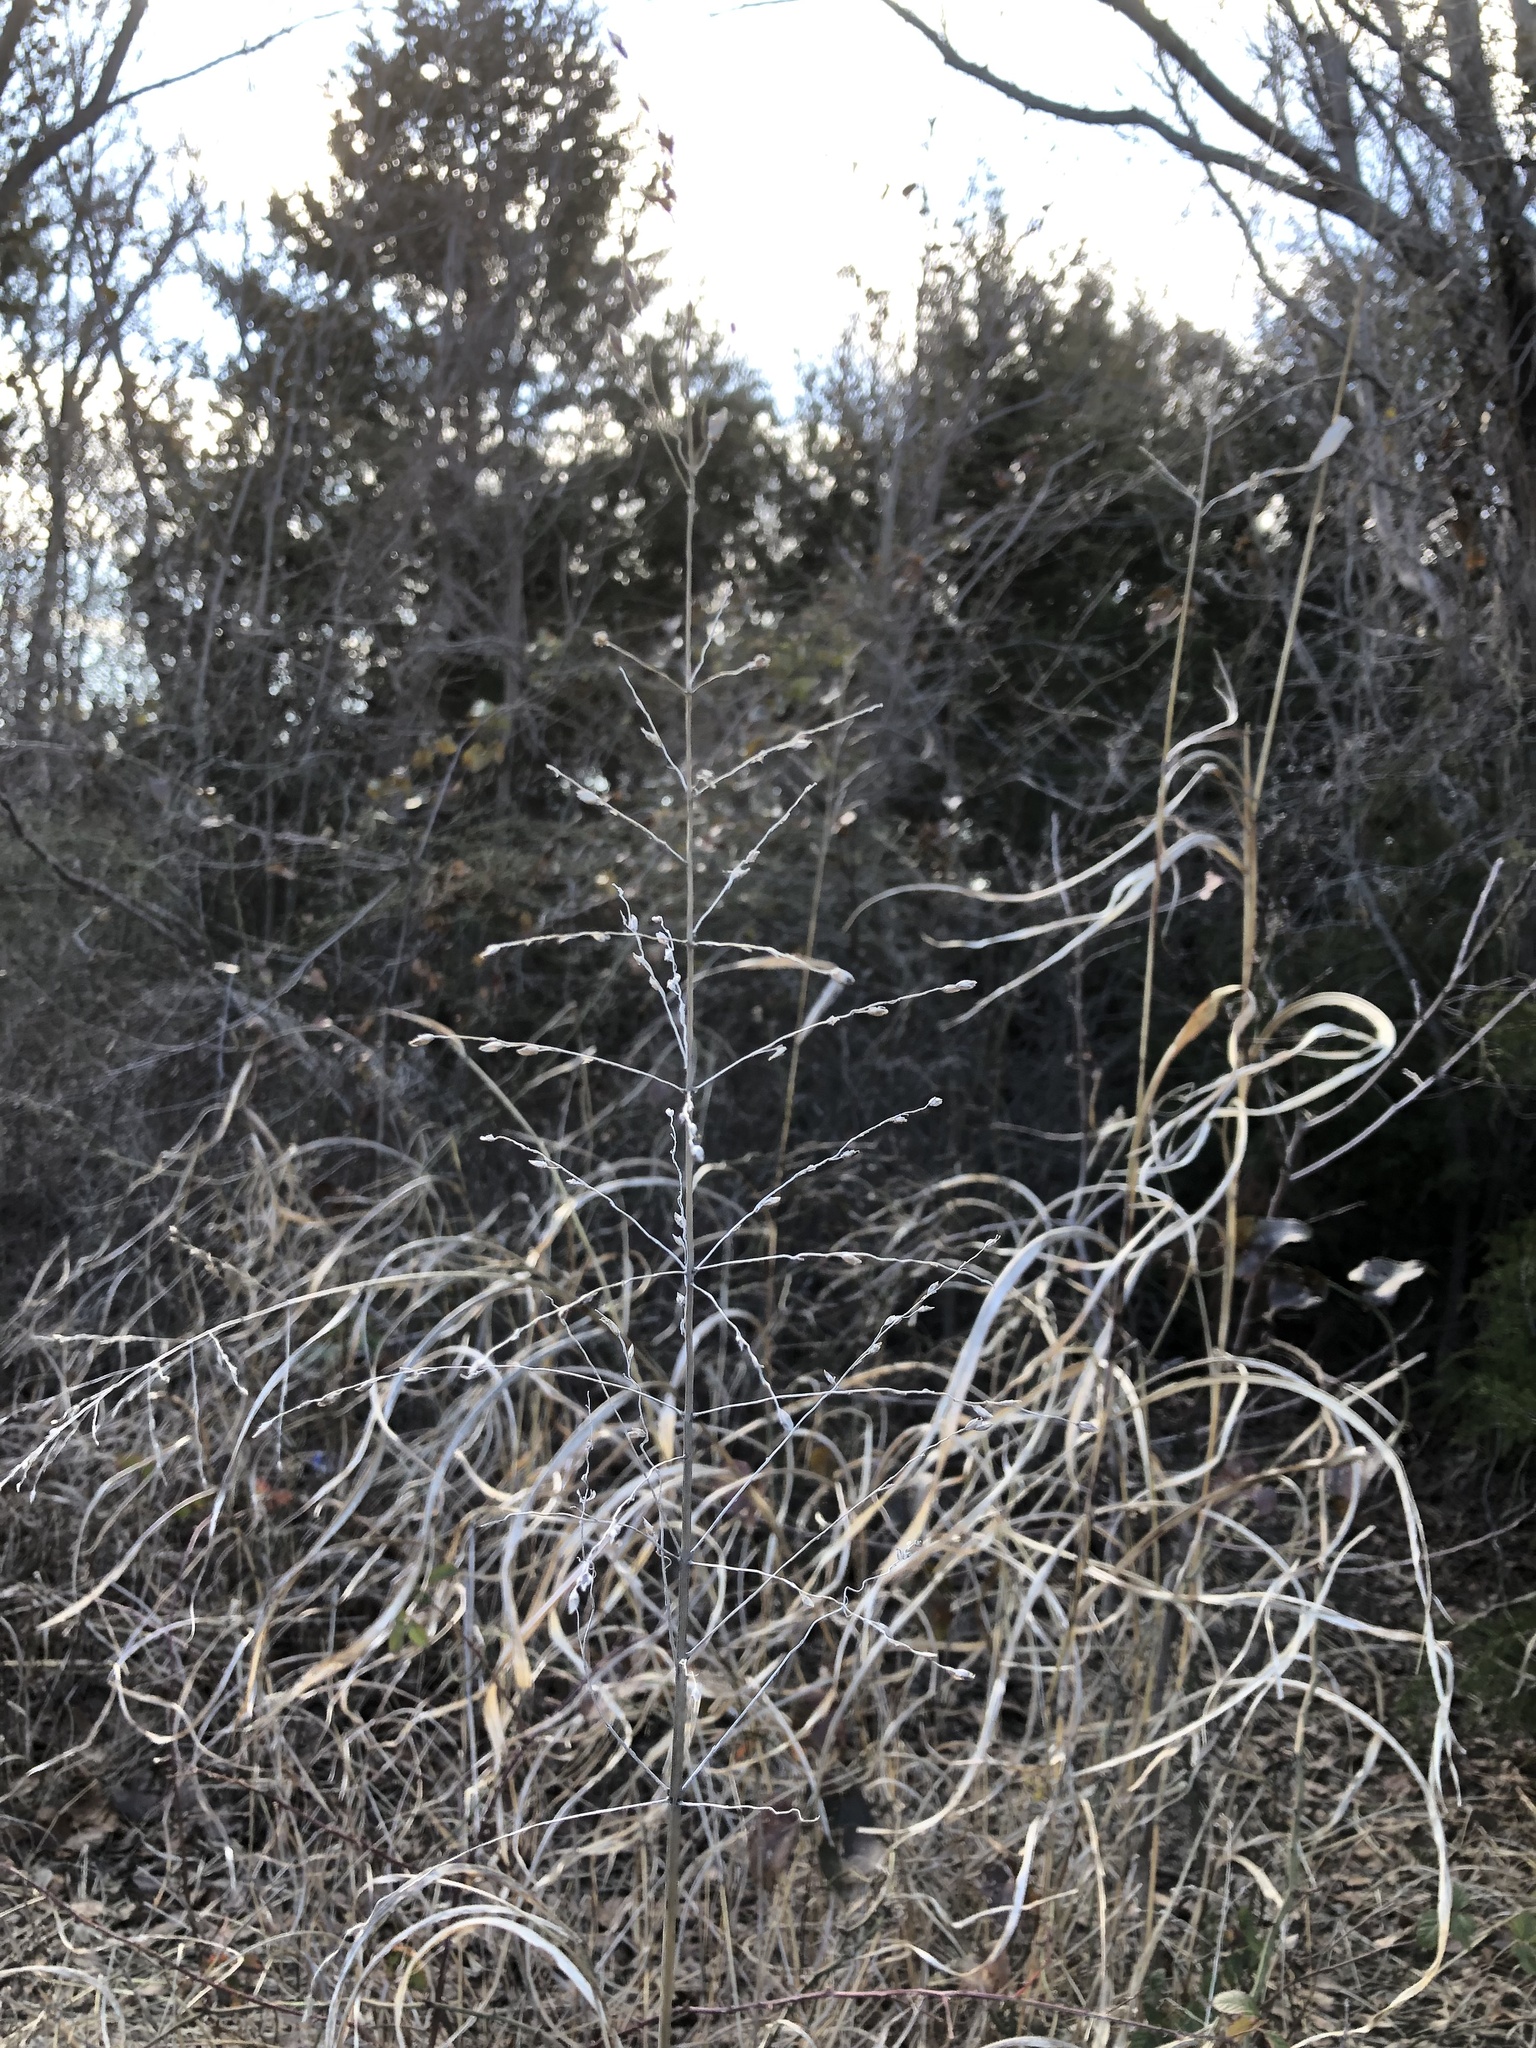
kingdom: Plantae
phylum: Tracheophyta
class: Liliopsida
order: Poales
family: Poaceae
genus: Sorghum
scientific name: Sorghum halepense
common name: Johnson-grass
